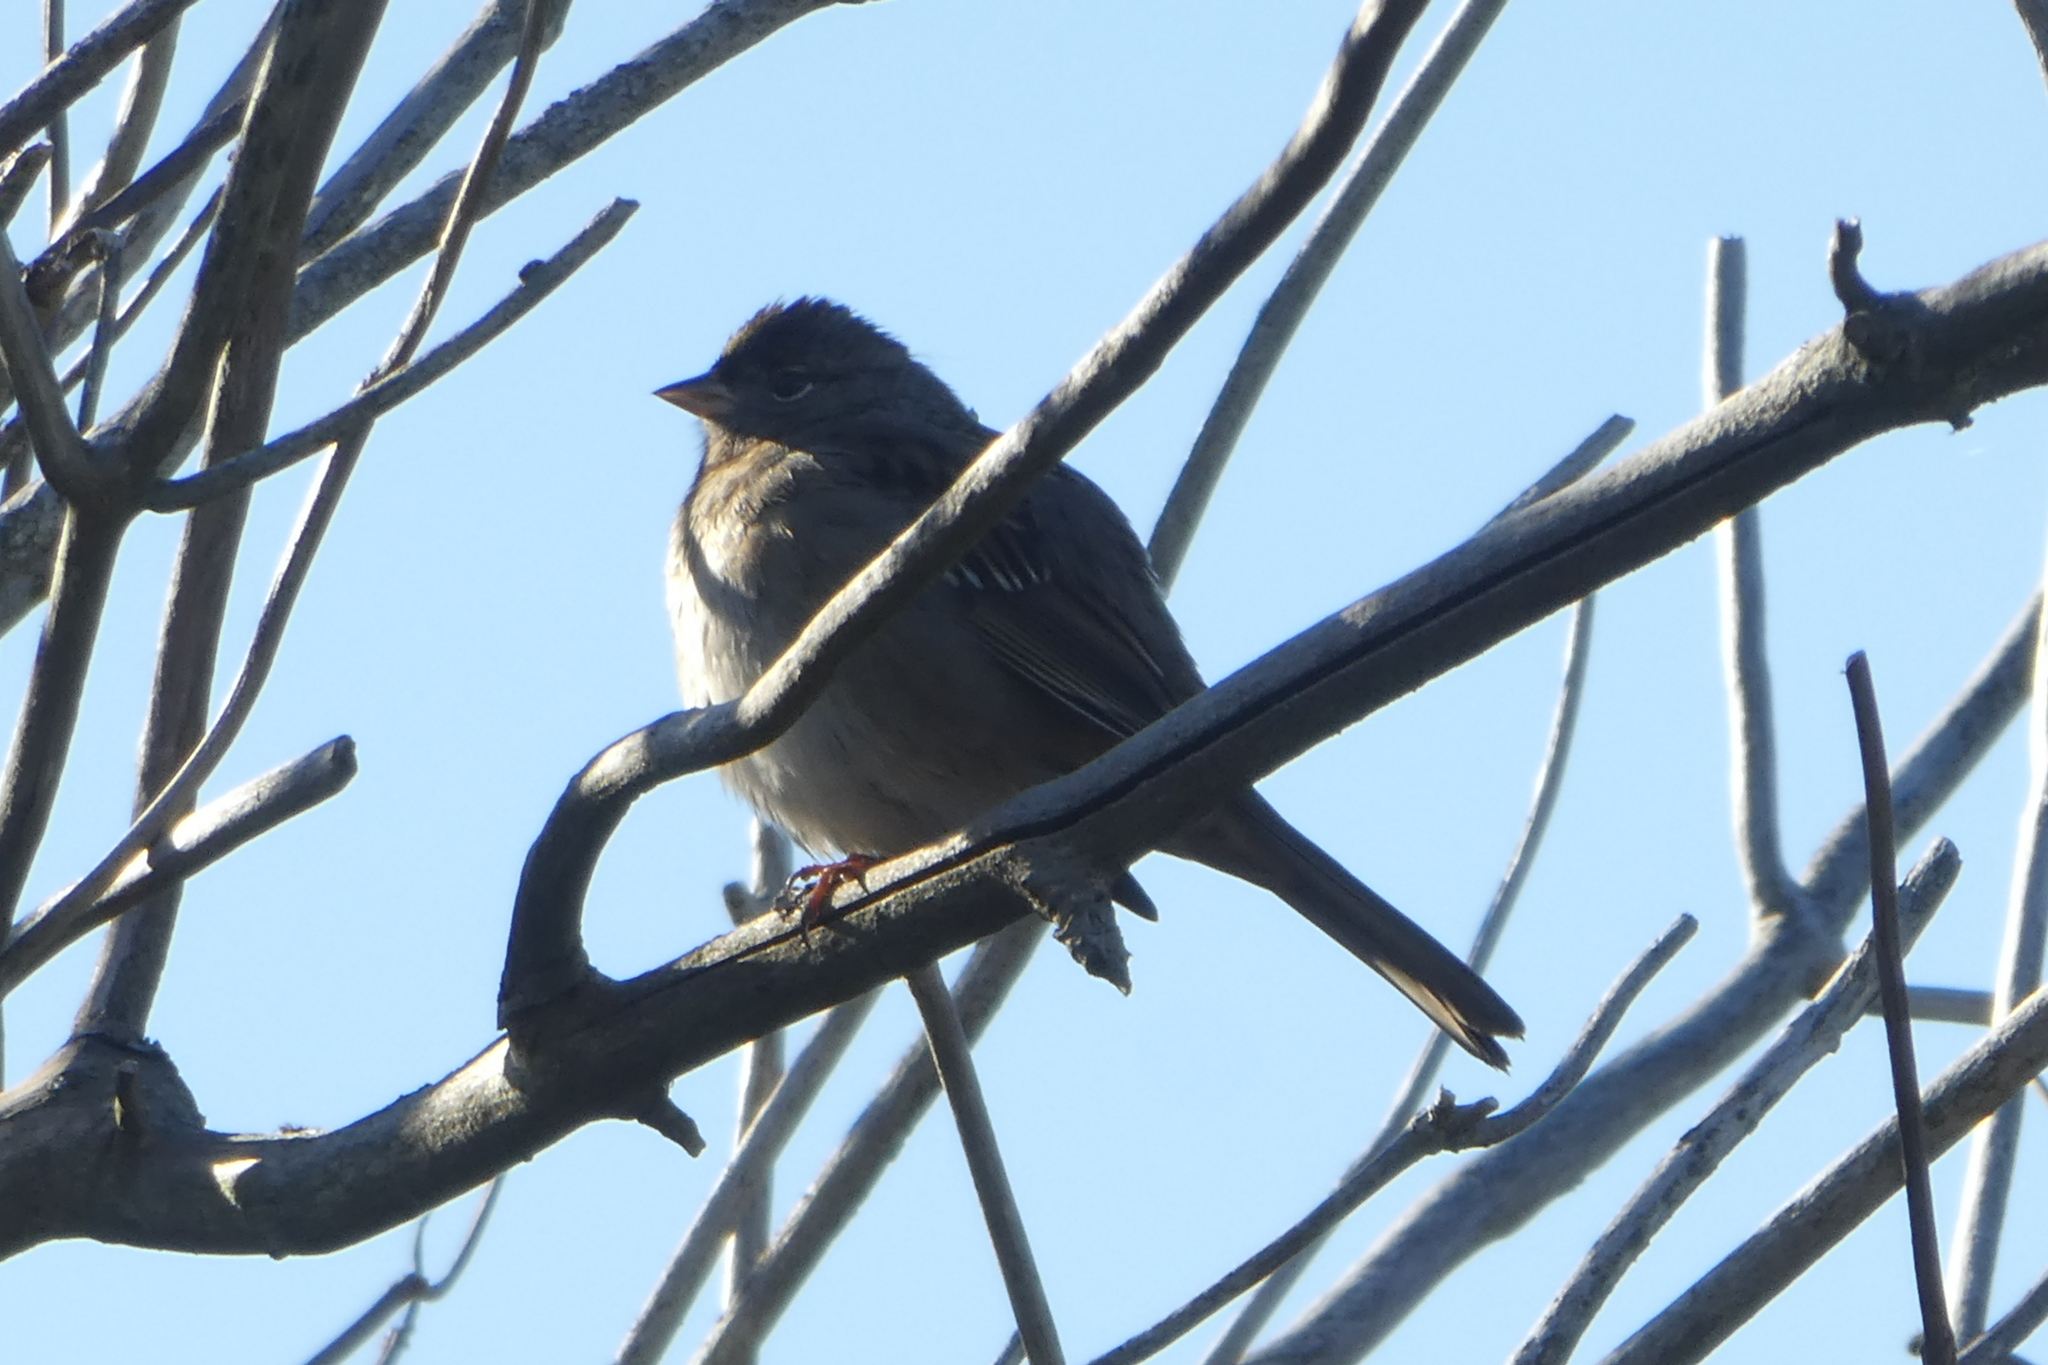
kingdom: Animalia
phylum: Chordata
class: Aves
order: Passeriformes
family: Passerellidae
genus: Zonotrichia
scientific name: Zonotrichia atricapilla
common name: Golden-crowned sparrow
